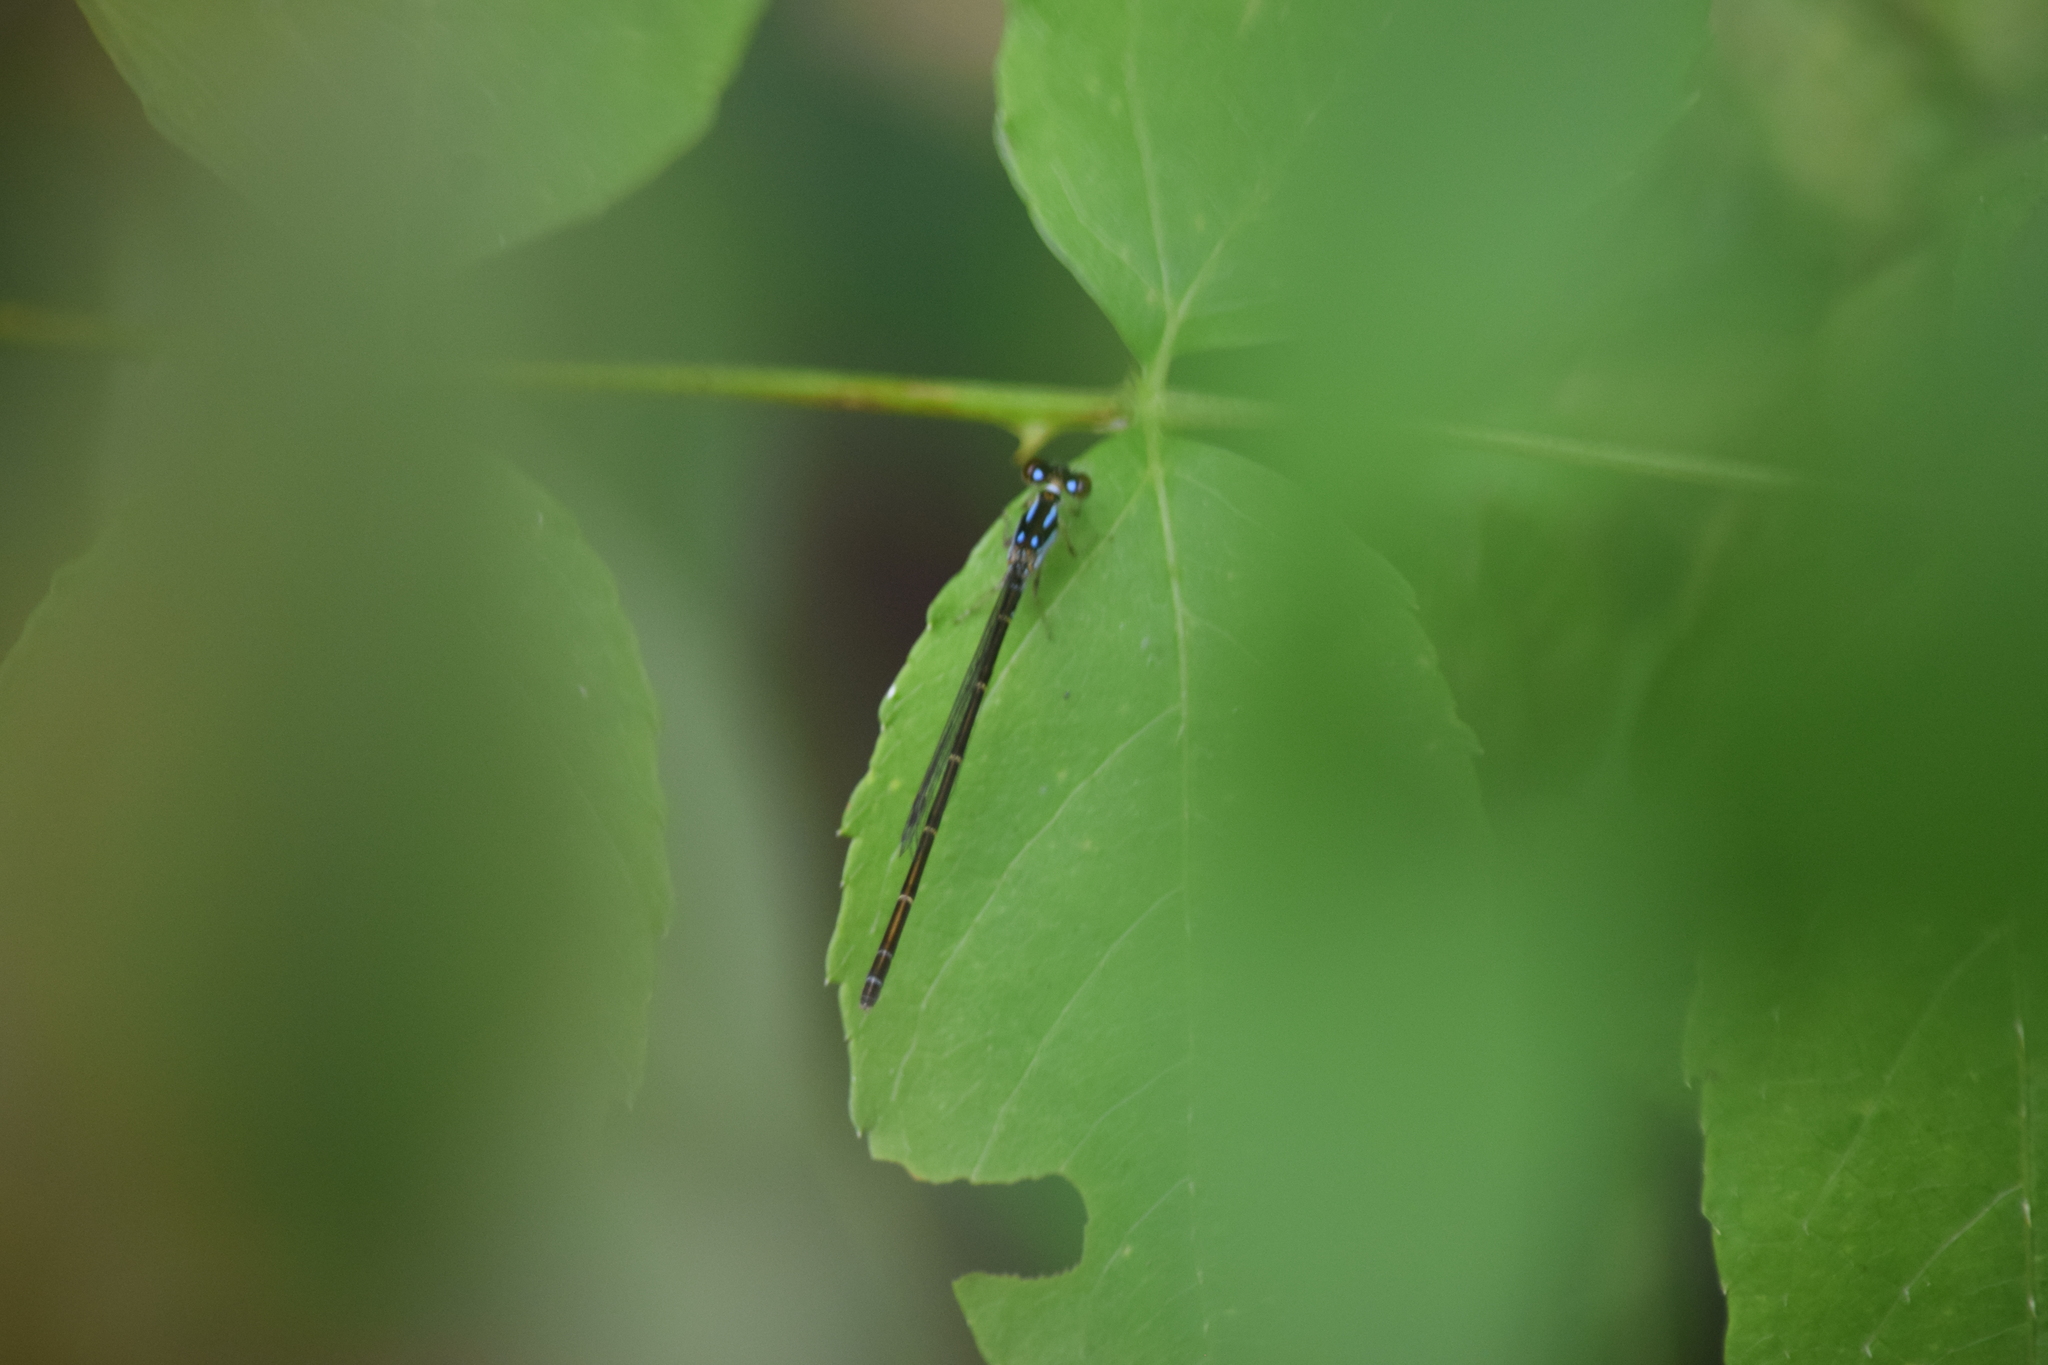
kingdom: Animalia
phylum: Arthropoda
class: Insecta
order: Odonata
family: Coenagrionidae
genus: Ischnura
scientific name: Ischnura posita
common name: Fragile forktail
